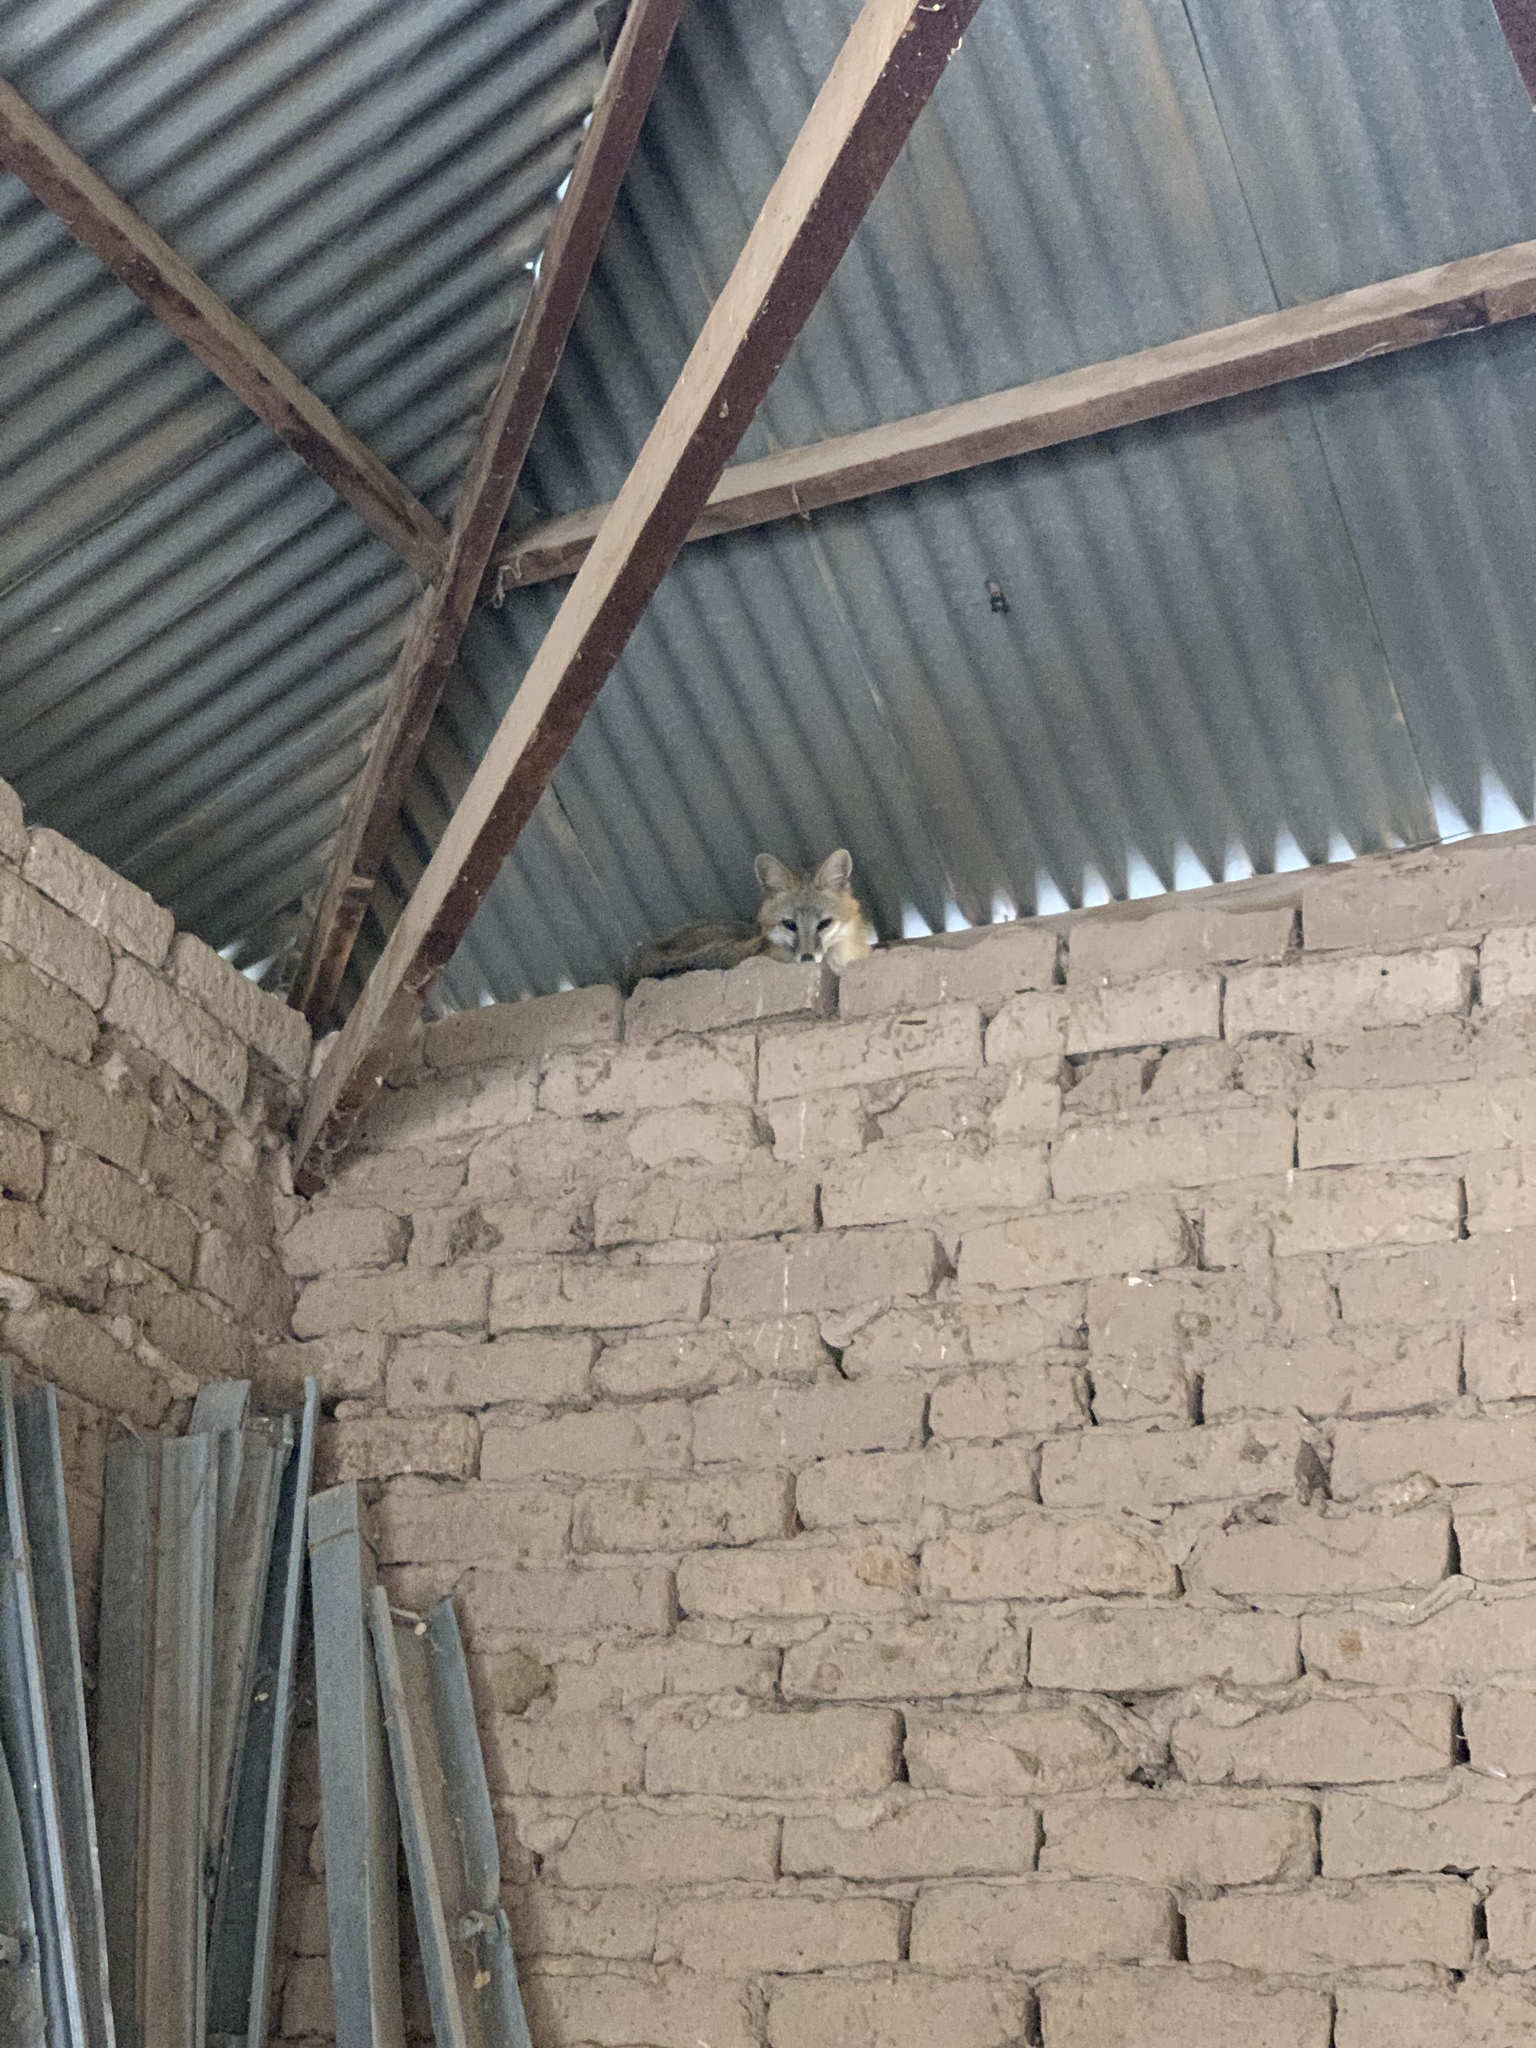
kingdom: Animalia
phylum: Chordata
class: Mammalia
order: Carnivora
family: Canidae
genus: Urocyon
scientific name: Urocyon cinereoargenteus
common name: Gray fox
